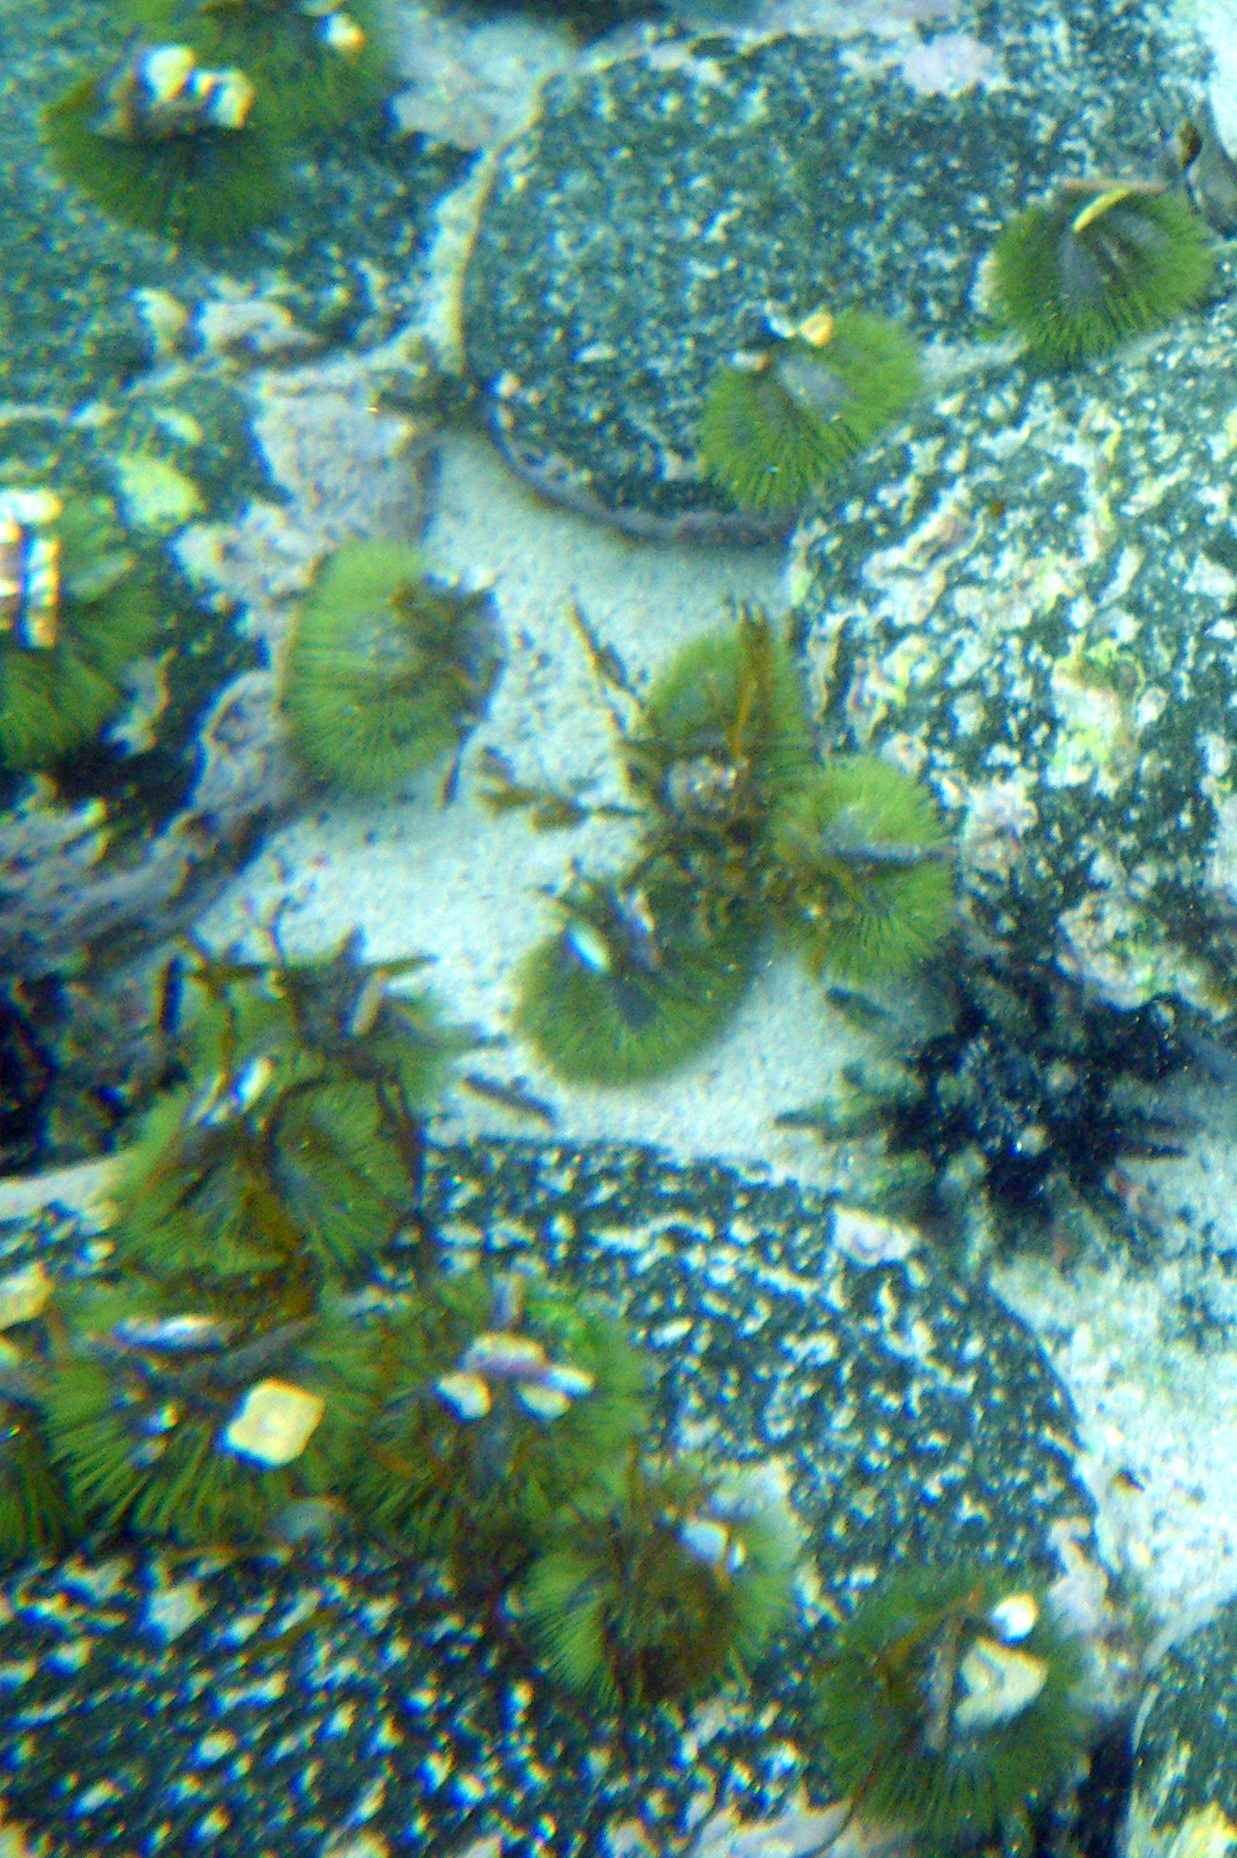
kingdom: Animalia
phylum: Echinodermata
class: Echinoidea
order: Camarodonta
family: Toxopneustidae
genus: Lytechinus
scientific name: Lytechinus semituberculatus
